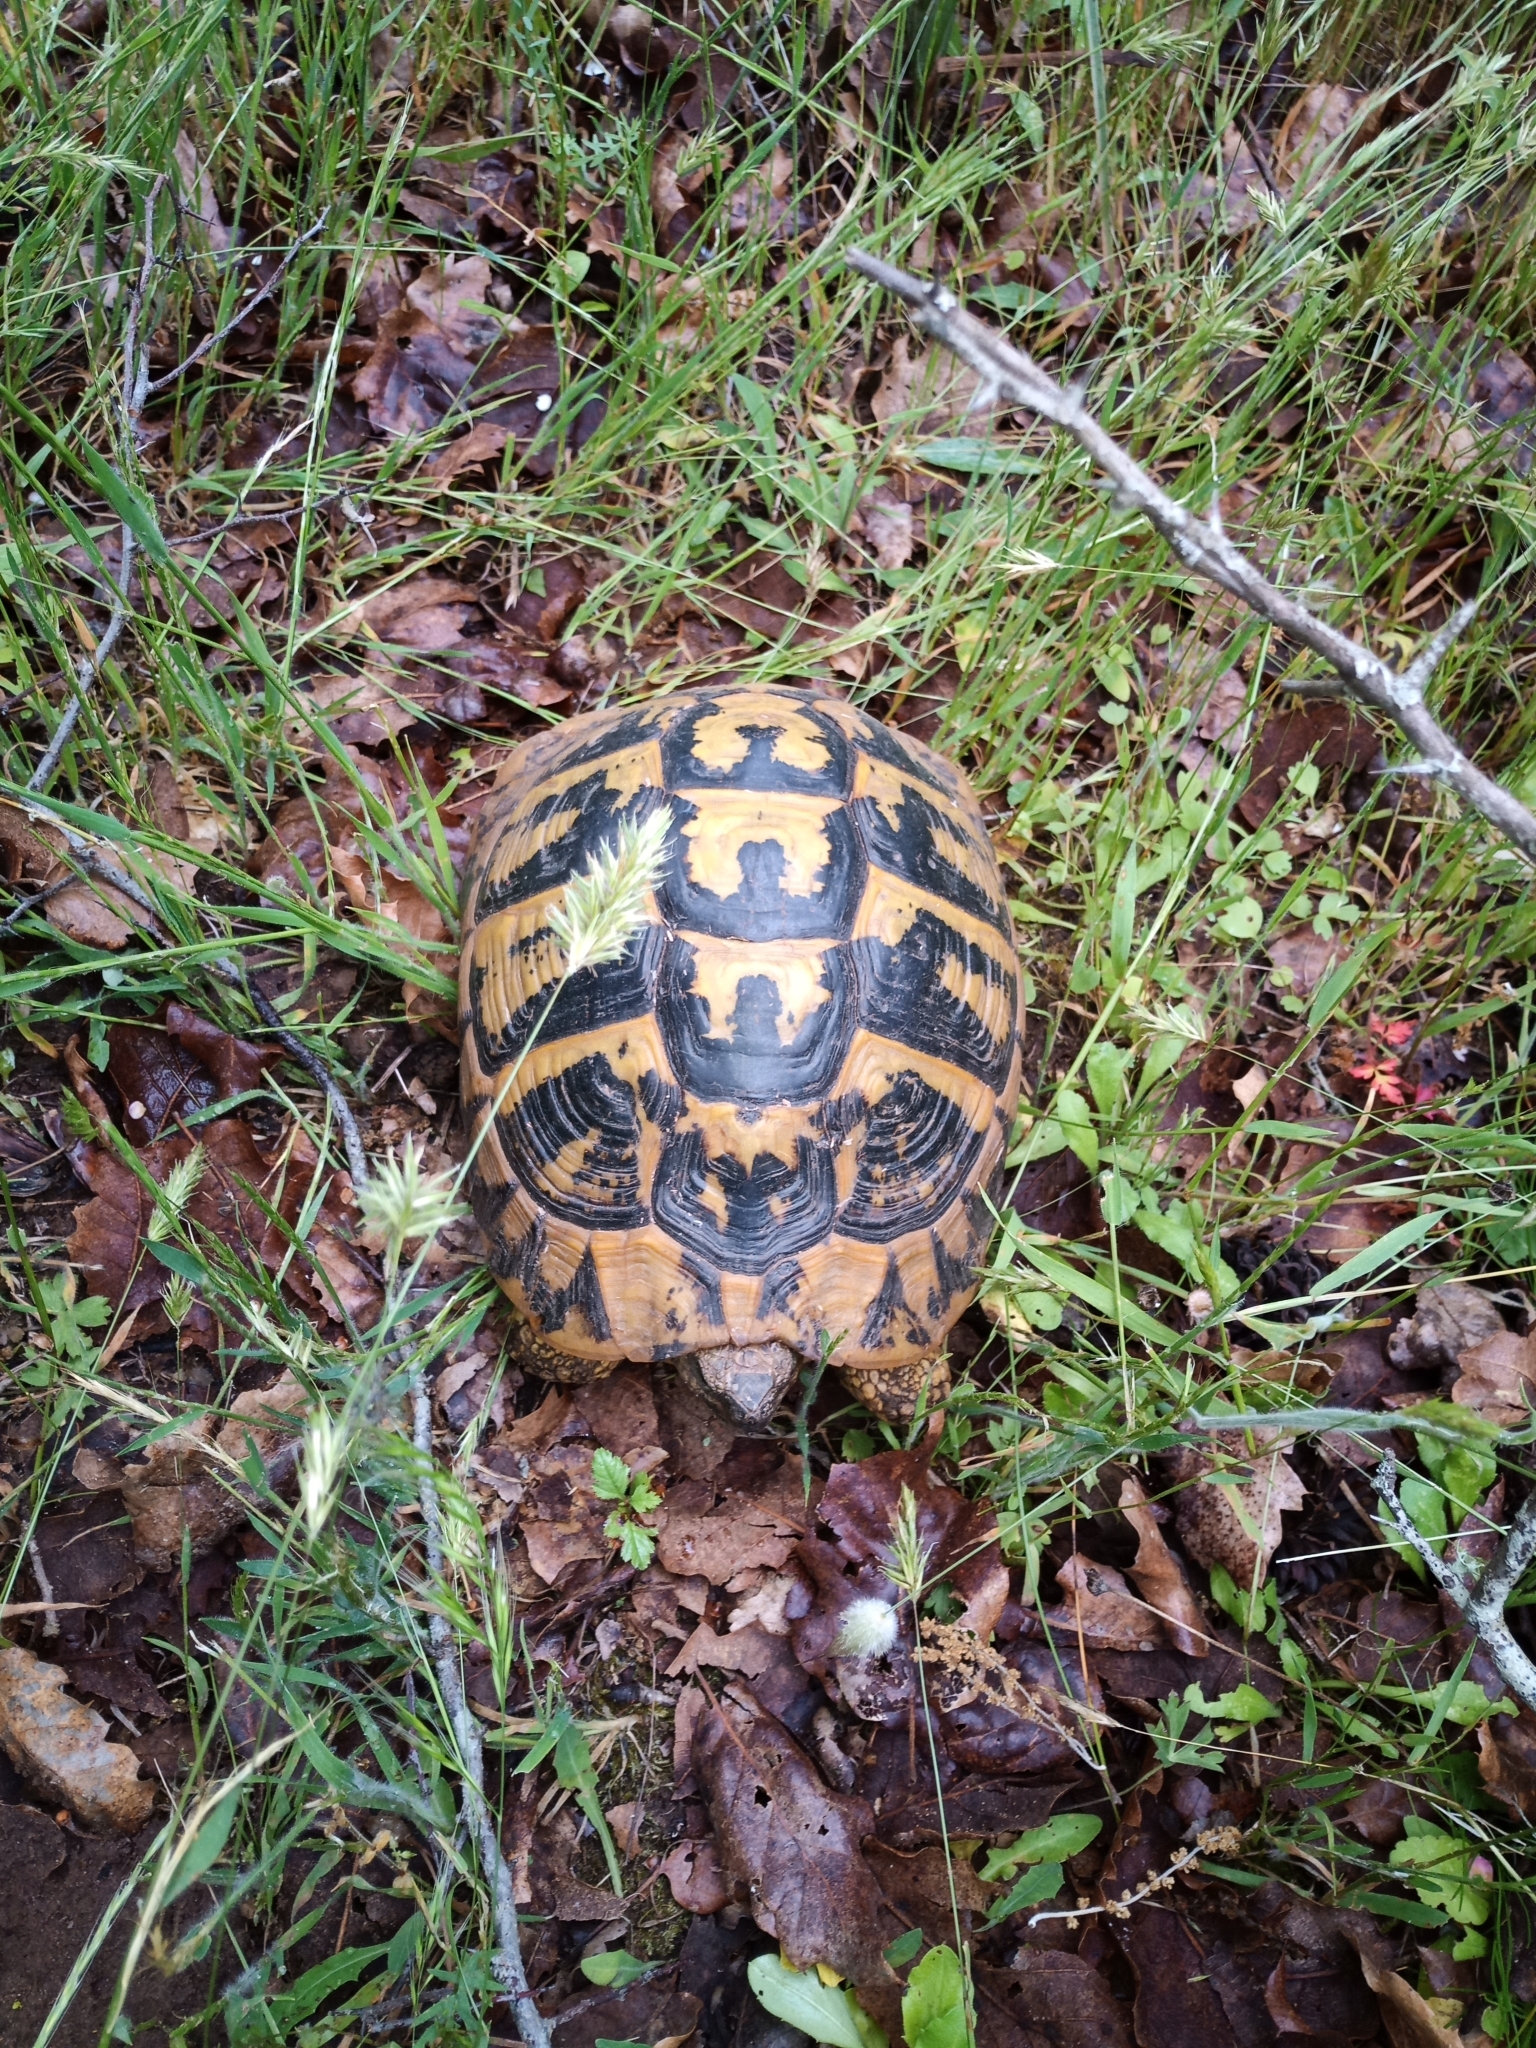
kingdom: Animalia
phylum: Chordata
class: Testudines
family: Testudinidae
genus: Testudo
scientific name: Testudo hermanni
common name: Hermann's tortoise
